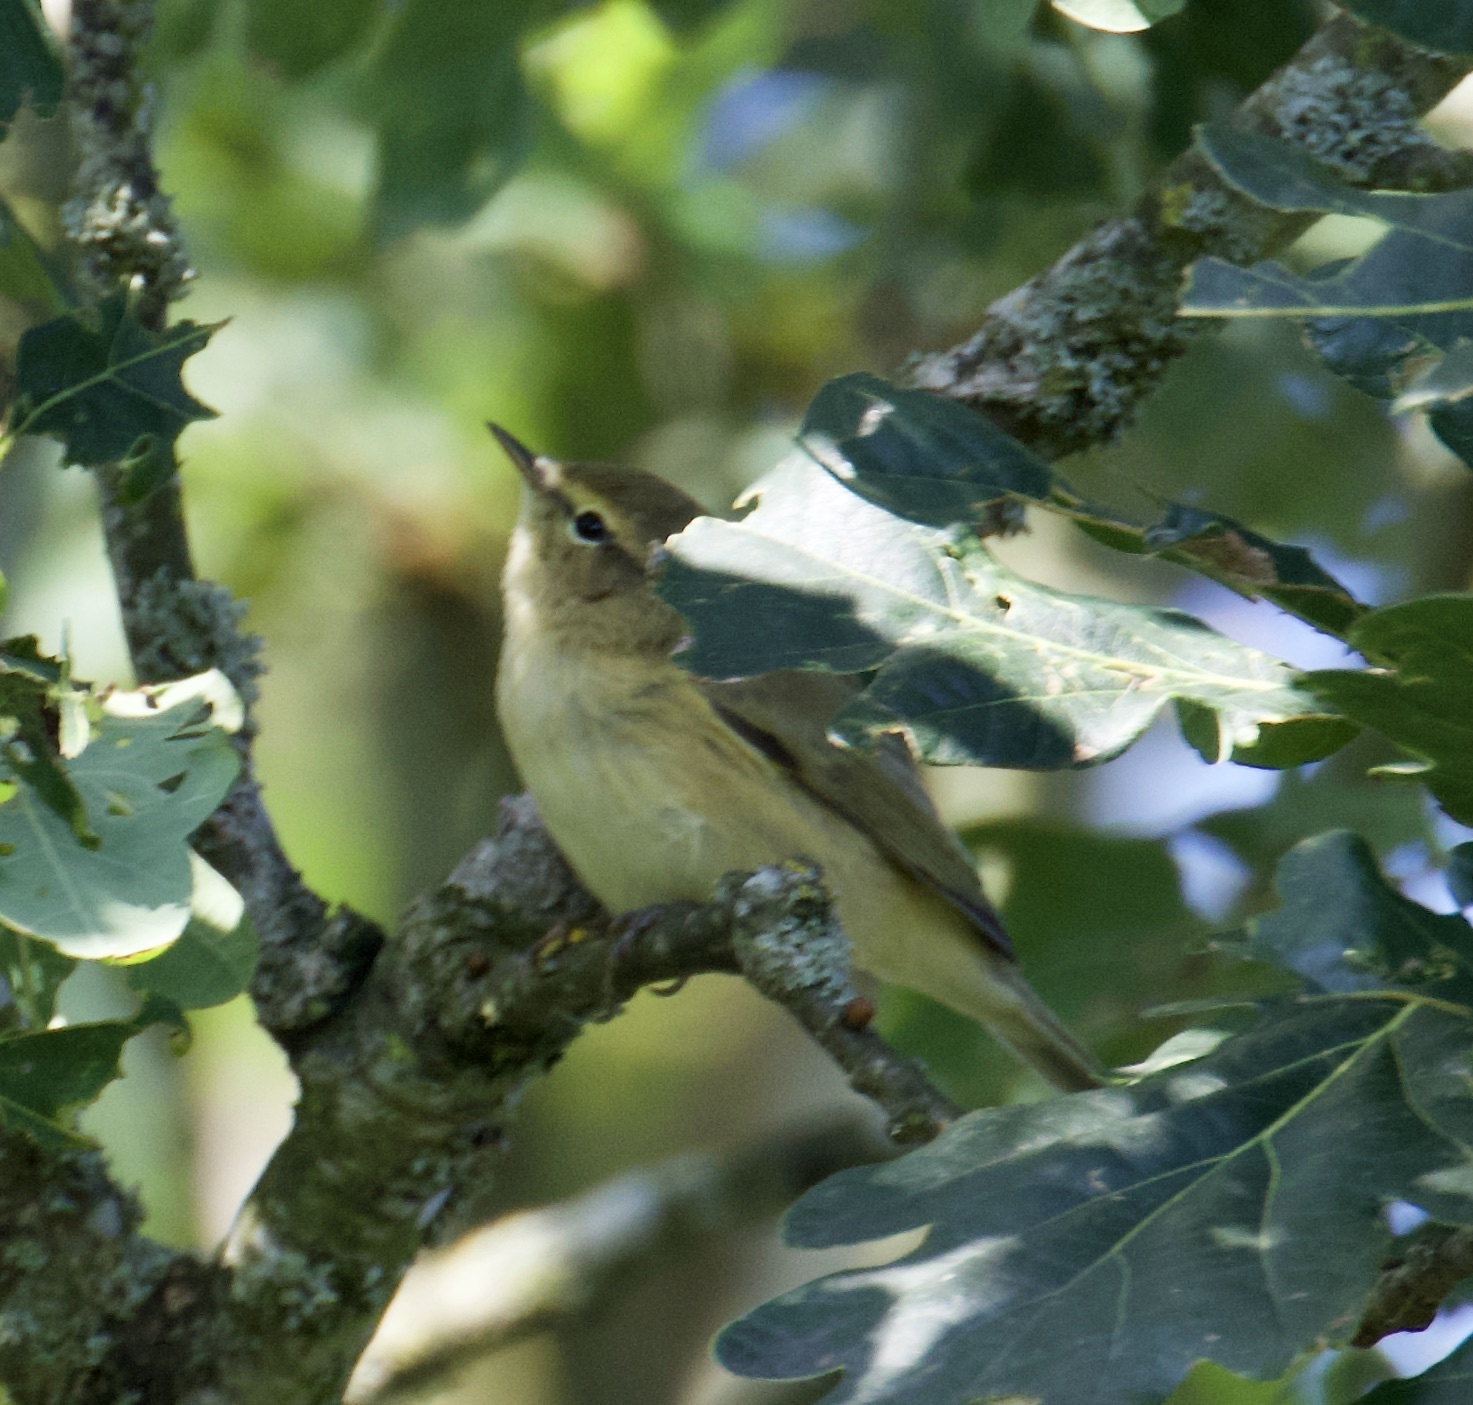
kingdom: Animalia
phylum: Chordata
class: Aves
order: Passeriformes
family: Phylloscopidae
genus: Phylloscopus
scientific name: Phylloscopus collybita
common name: Common chiffchaff
